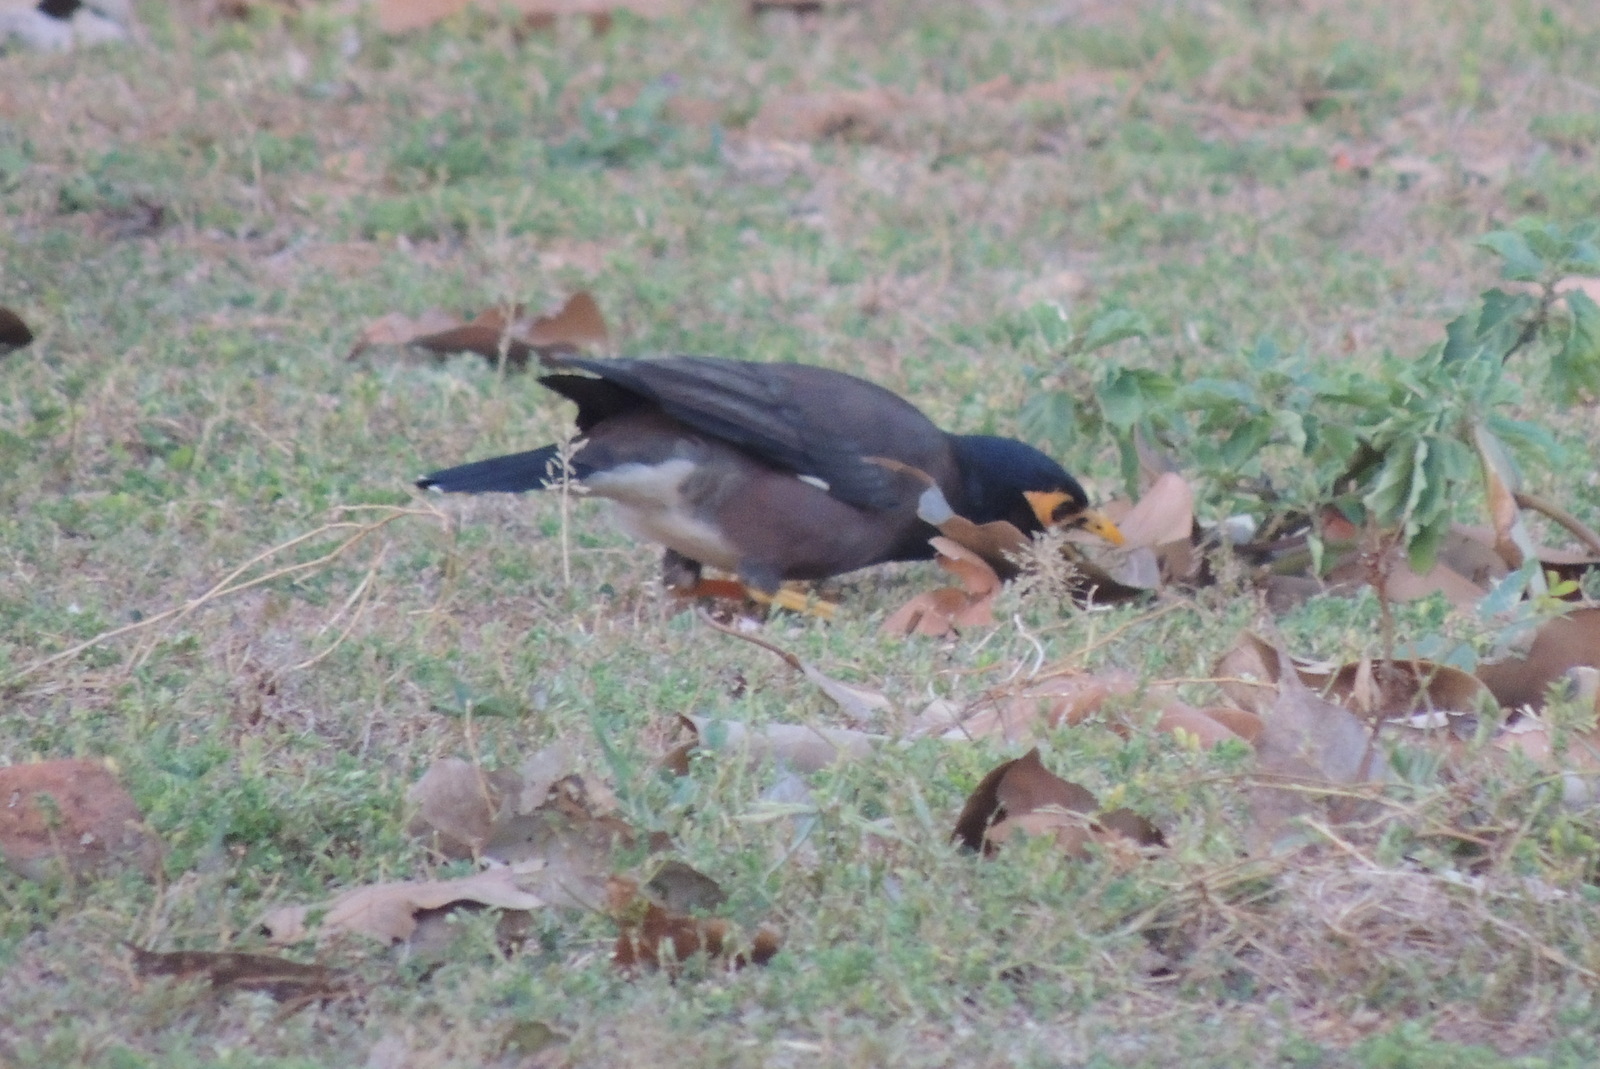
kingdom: Animalia
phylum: Chordata
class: Aves
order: Passeriformes
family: Sturnidae
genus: Acridotheres
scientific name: Acridotheres tristis
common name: Common myna
